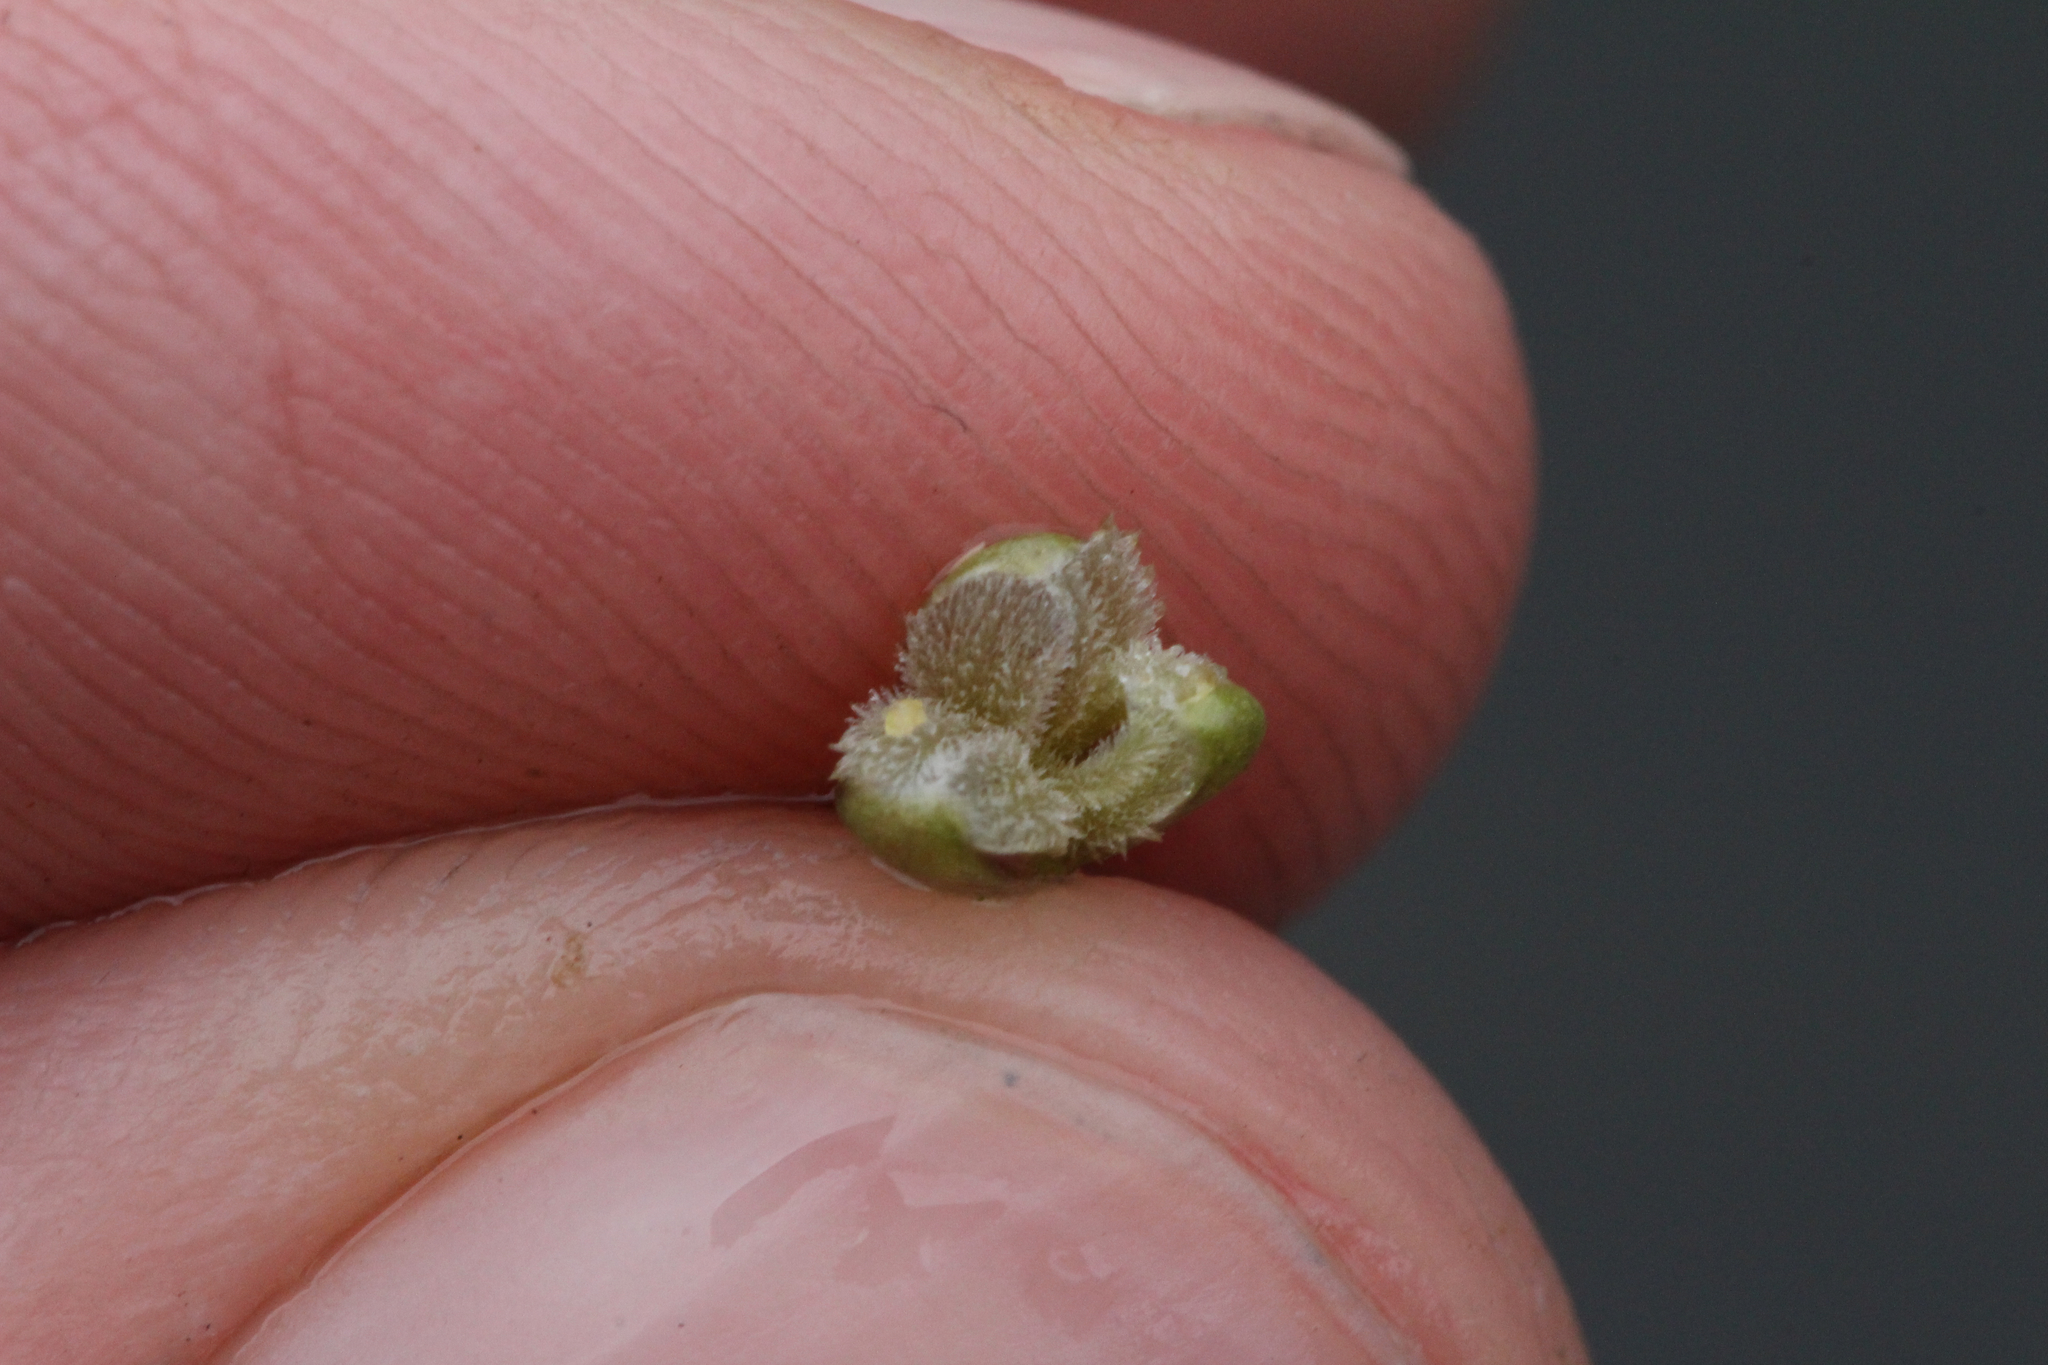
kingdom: Plantae
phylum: Tracheophyta
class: Liliopsida
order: Alismatales
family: Hydrocharitaceae
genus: Vallisneria
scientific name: Vallisneria americana
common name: American eelgrass
